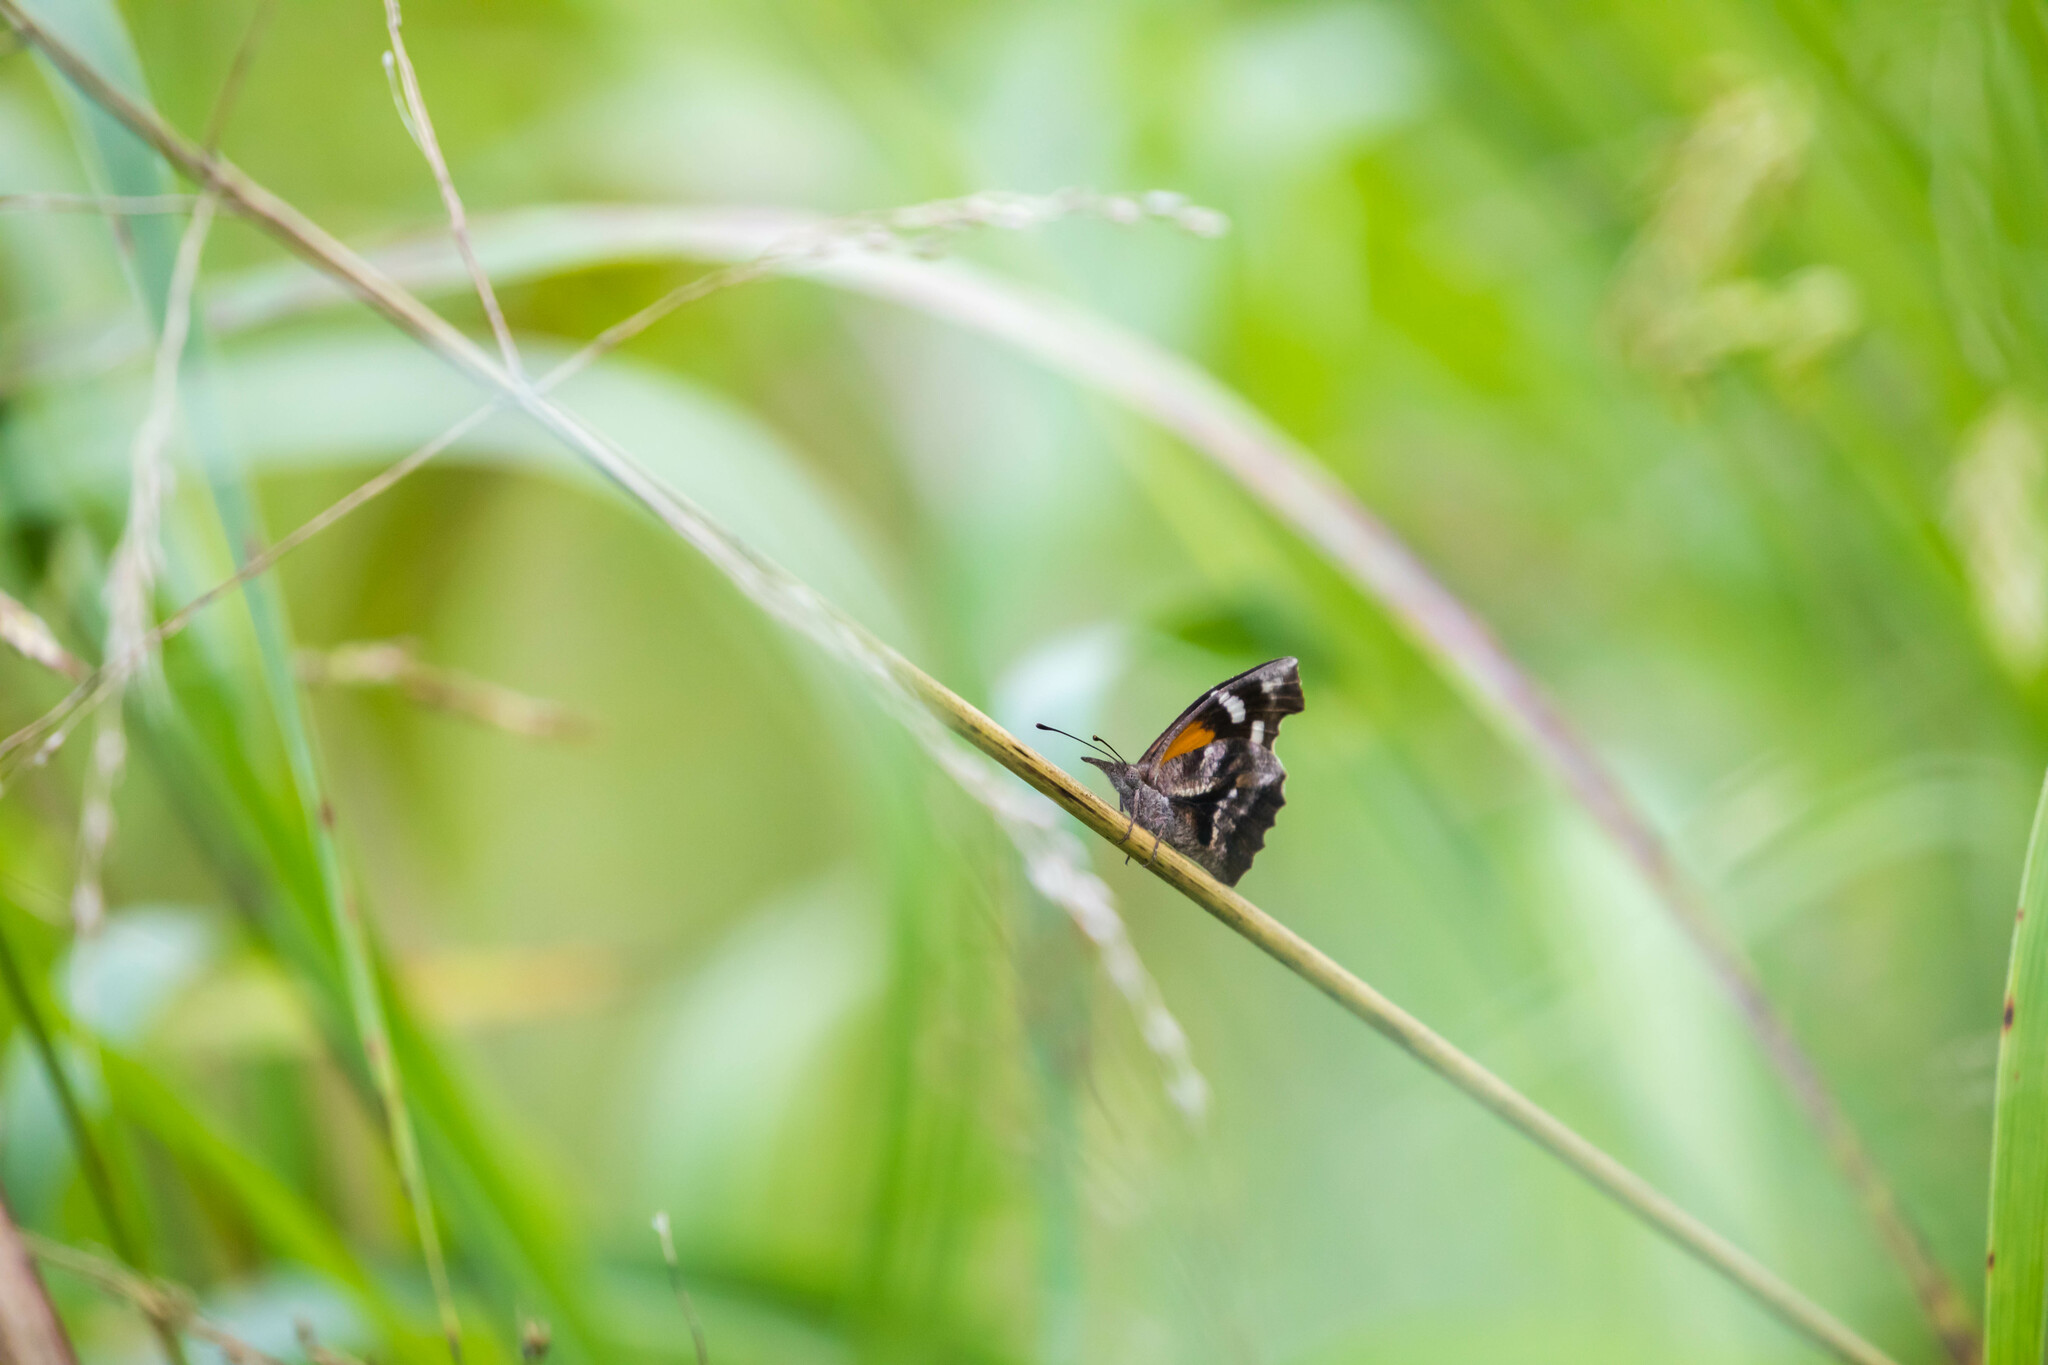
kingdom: Animalia
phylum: Arthropoda
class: Insecta
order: Lepidoptera
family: Nymphalidae
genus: Libytheana
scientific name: Libytheana carinenta
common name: American snout
